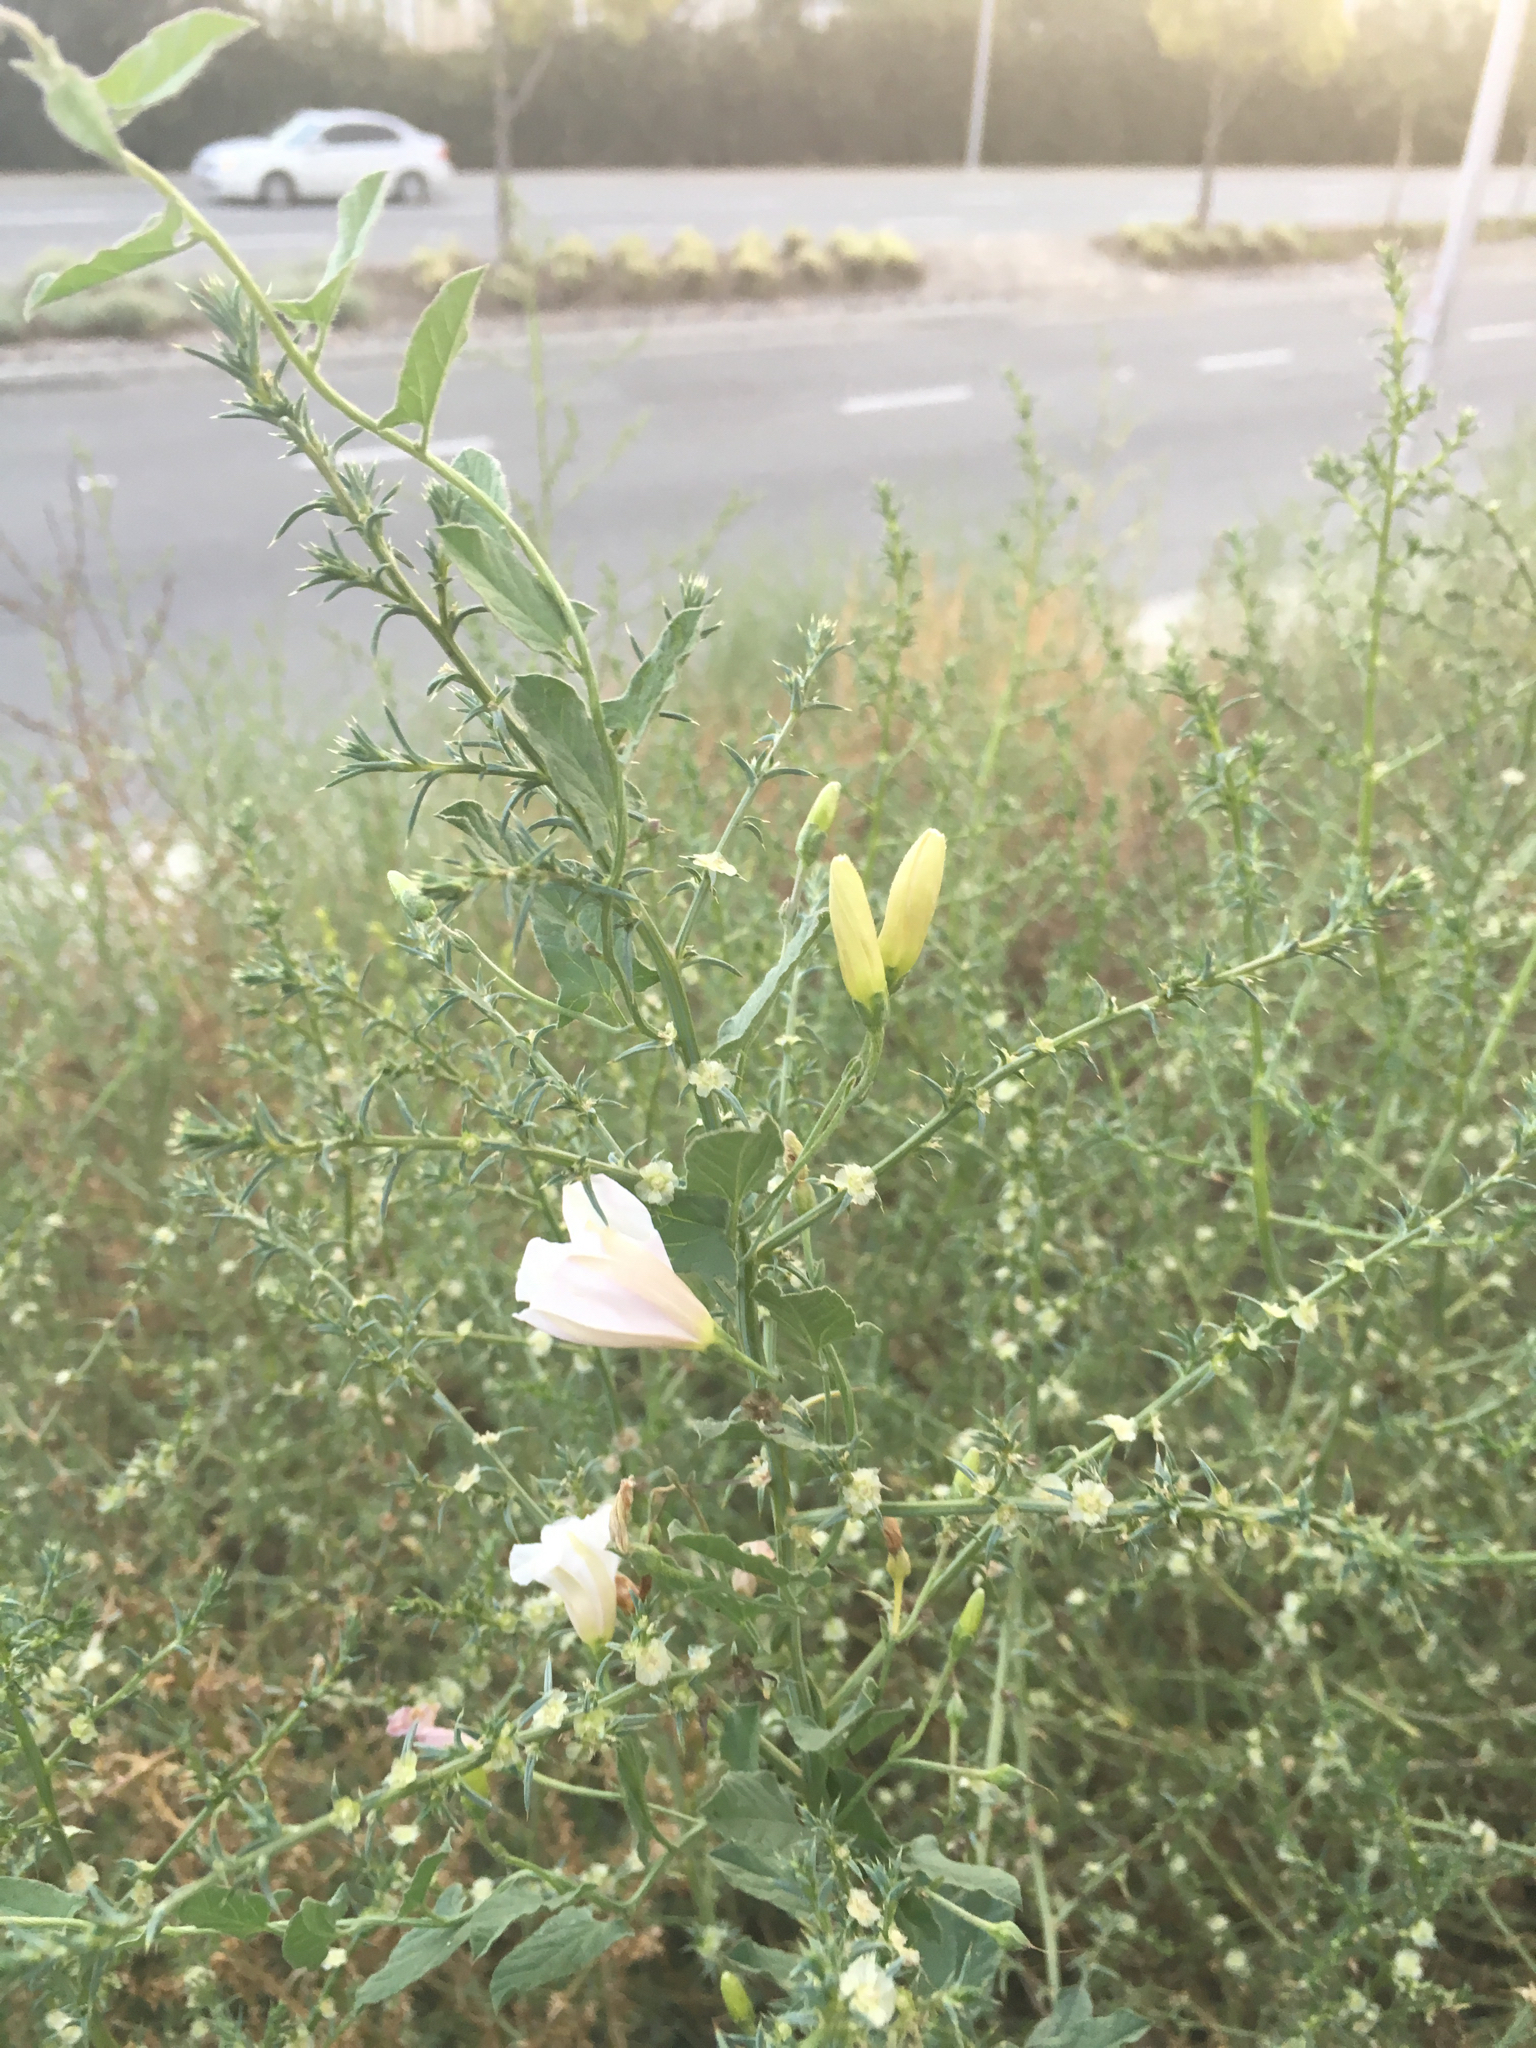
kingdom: Plantae
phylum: Tracheophyta
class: Magnoliopsida
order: Solanales
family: Convolvulaceae
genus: Convolvulus
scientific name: Convolvulus arvensis
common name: Field bindweed
